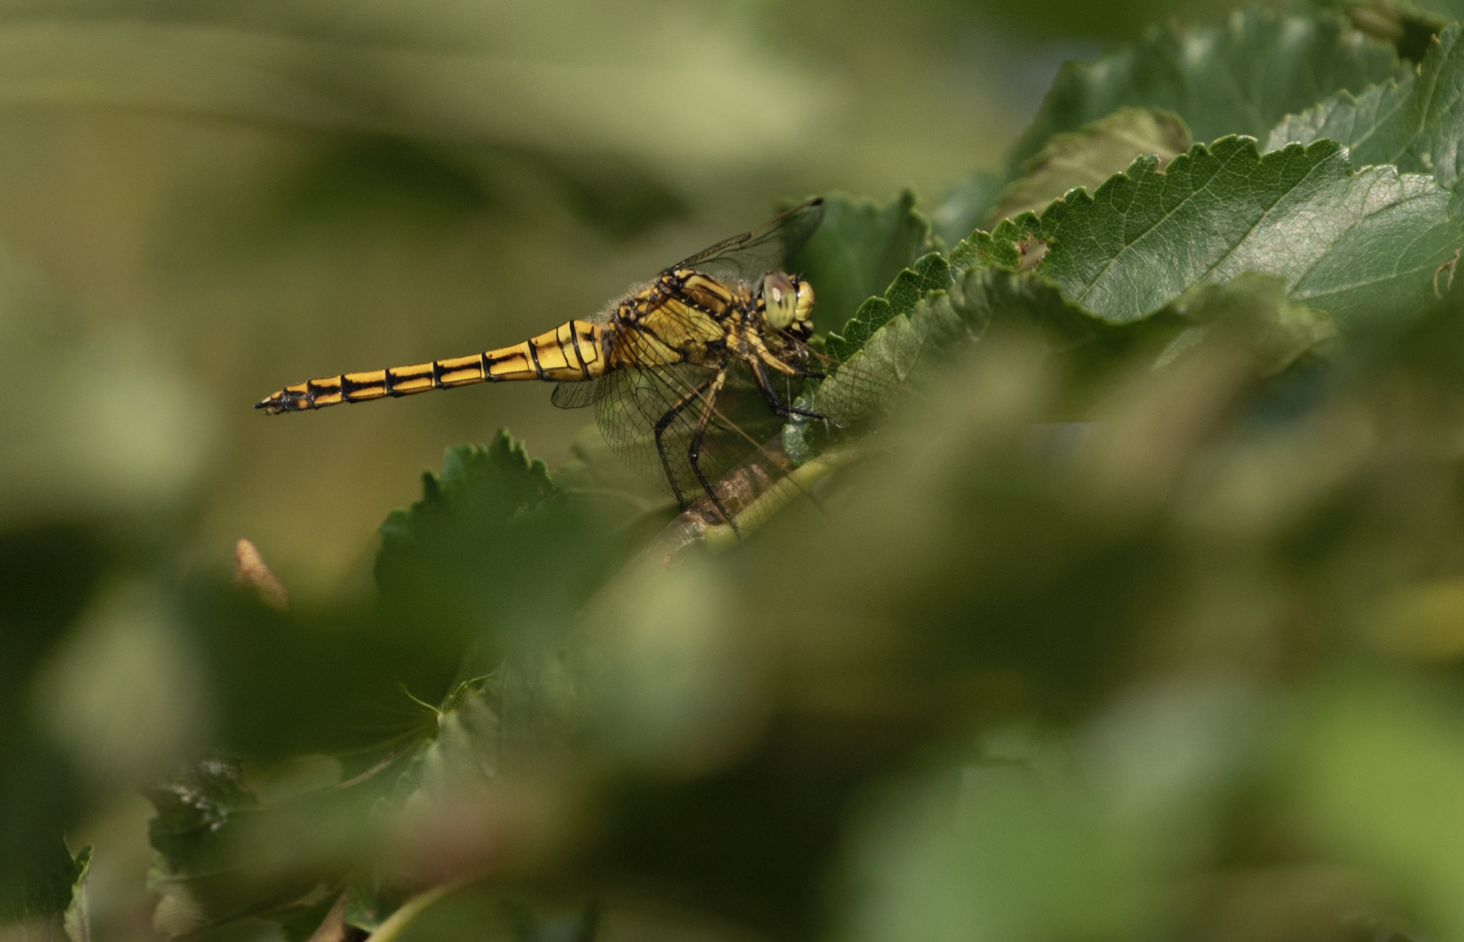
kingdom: Animalia
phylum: Arthropoda
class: Insecta
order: Odonata
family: Libellulidae
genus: Orthetrum
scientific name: Orthetrum cancellatum
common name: Black-tailed skimmer
